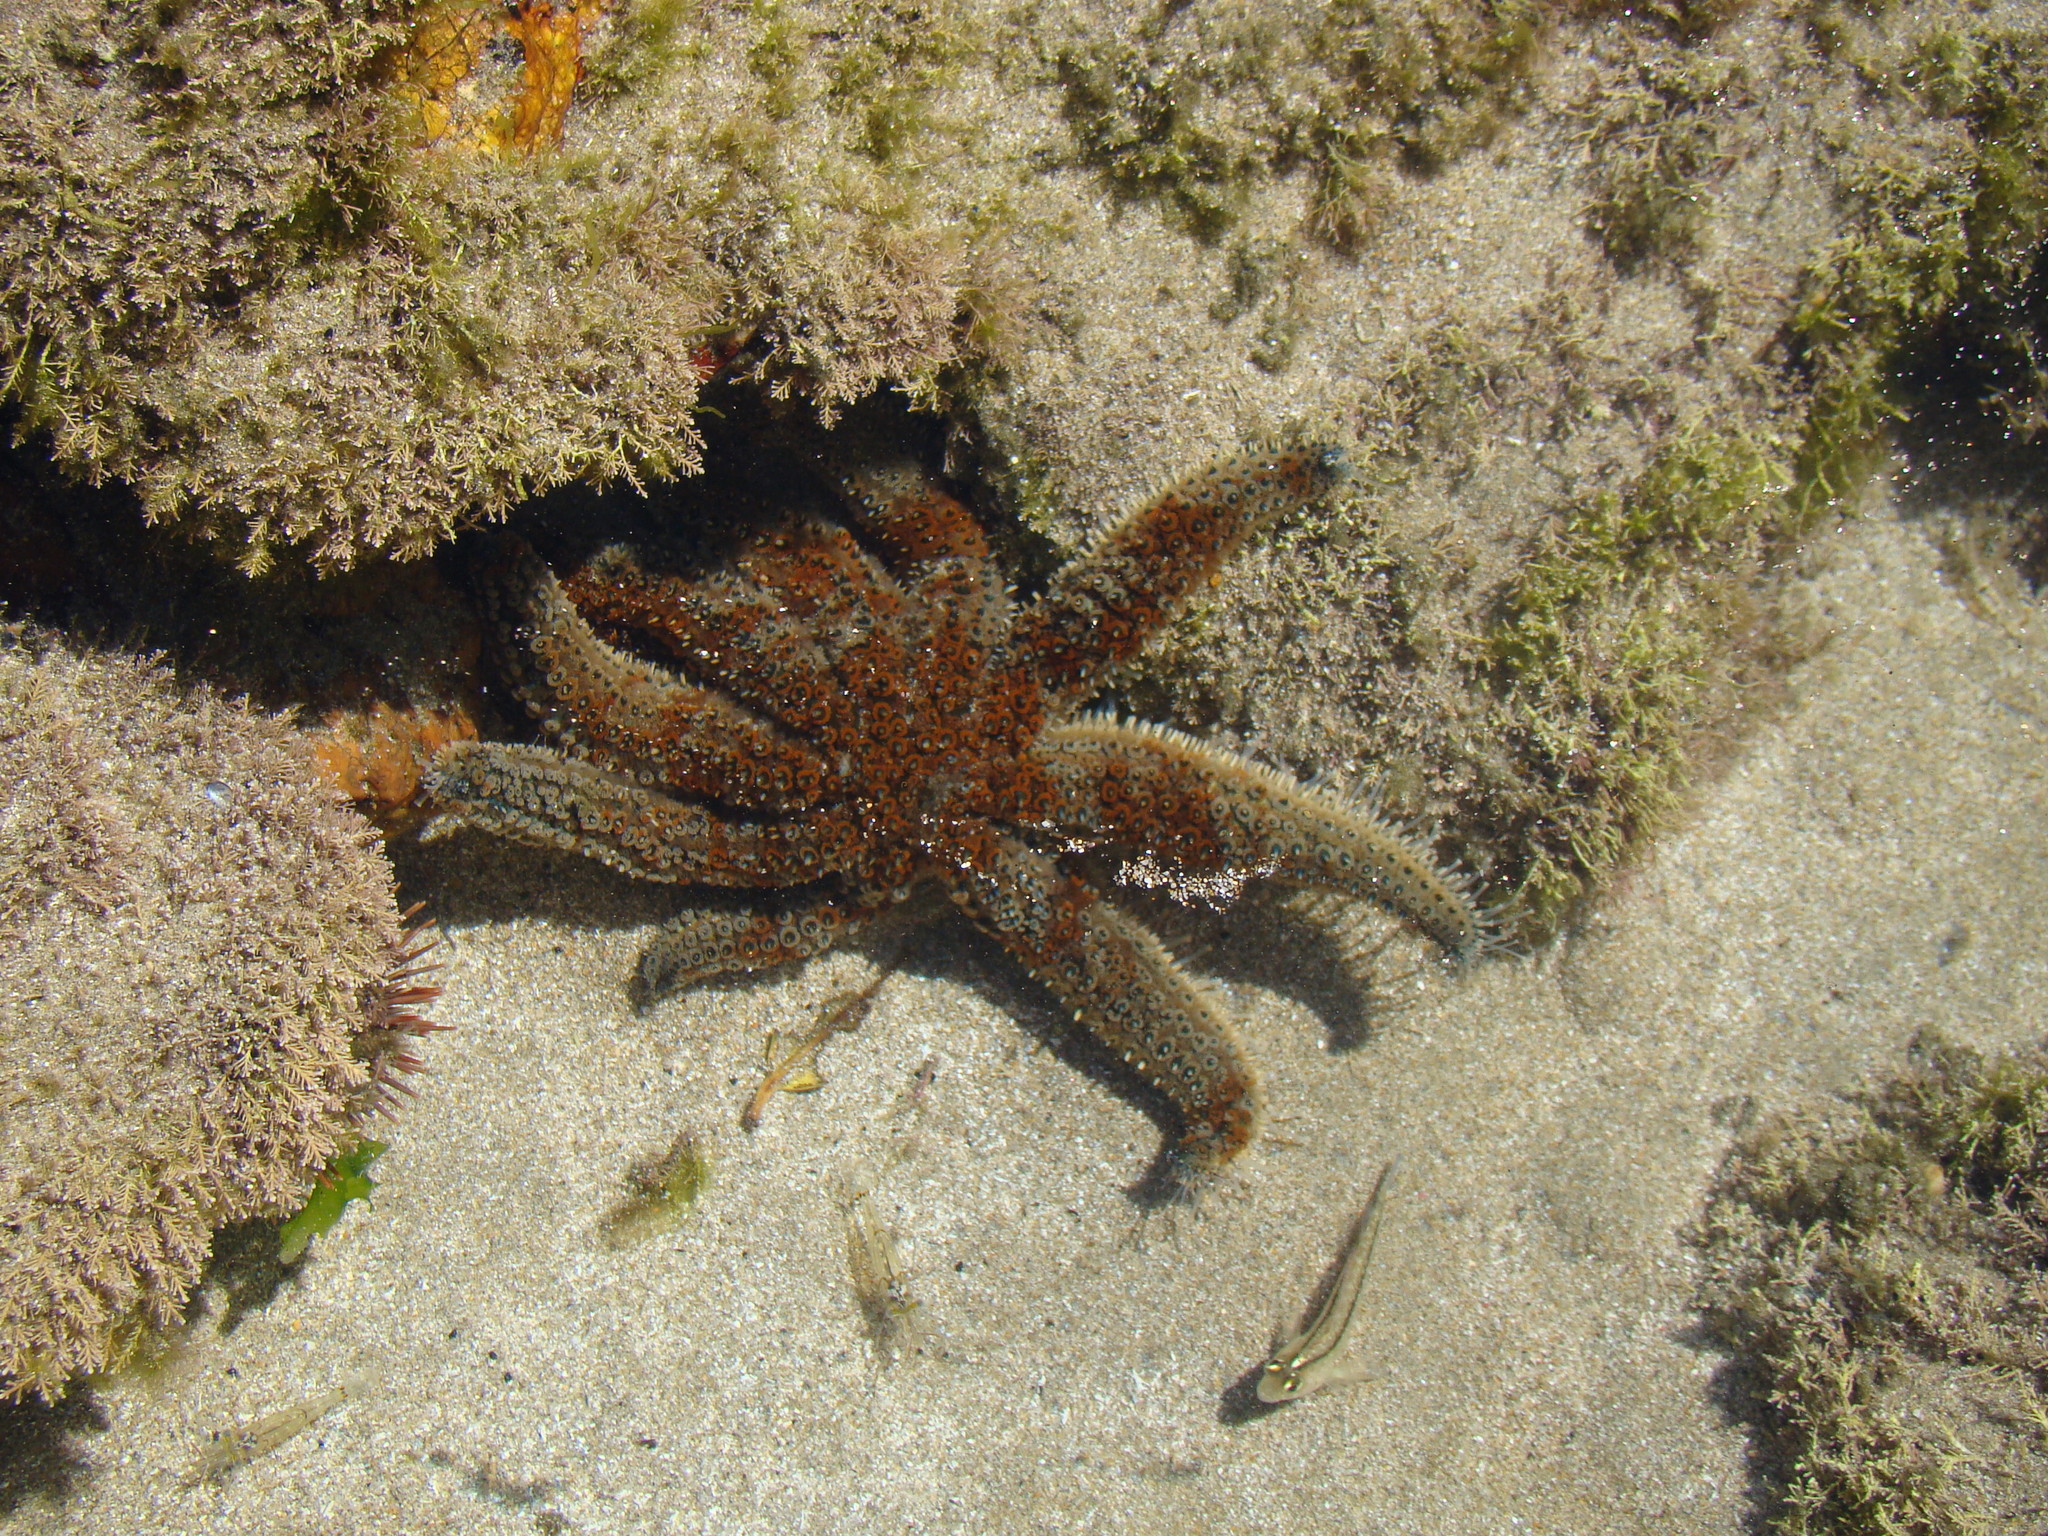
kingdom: Animalia
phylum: Echinodermata
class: Asteroidea
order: Forcipulatida
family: Asteriidae
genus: Coscinasterias
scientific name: Coscinasterias muricata
